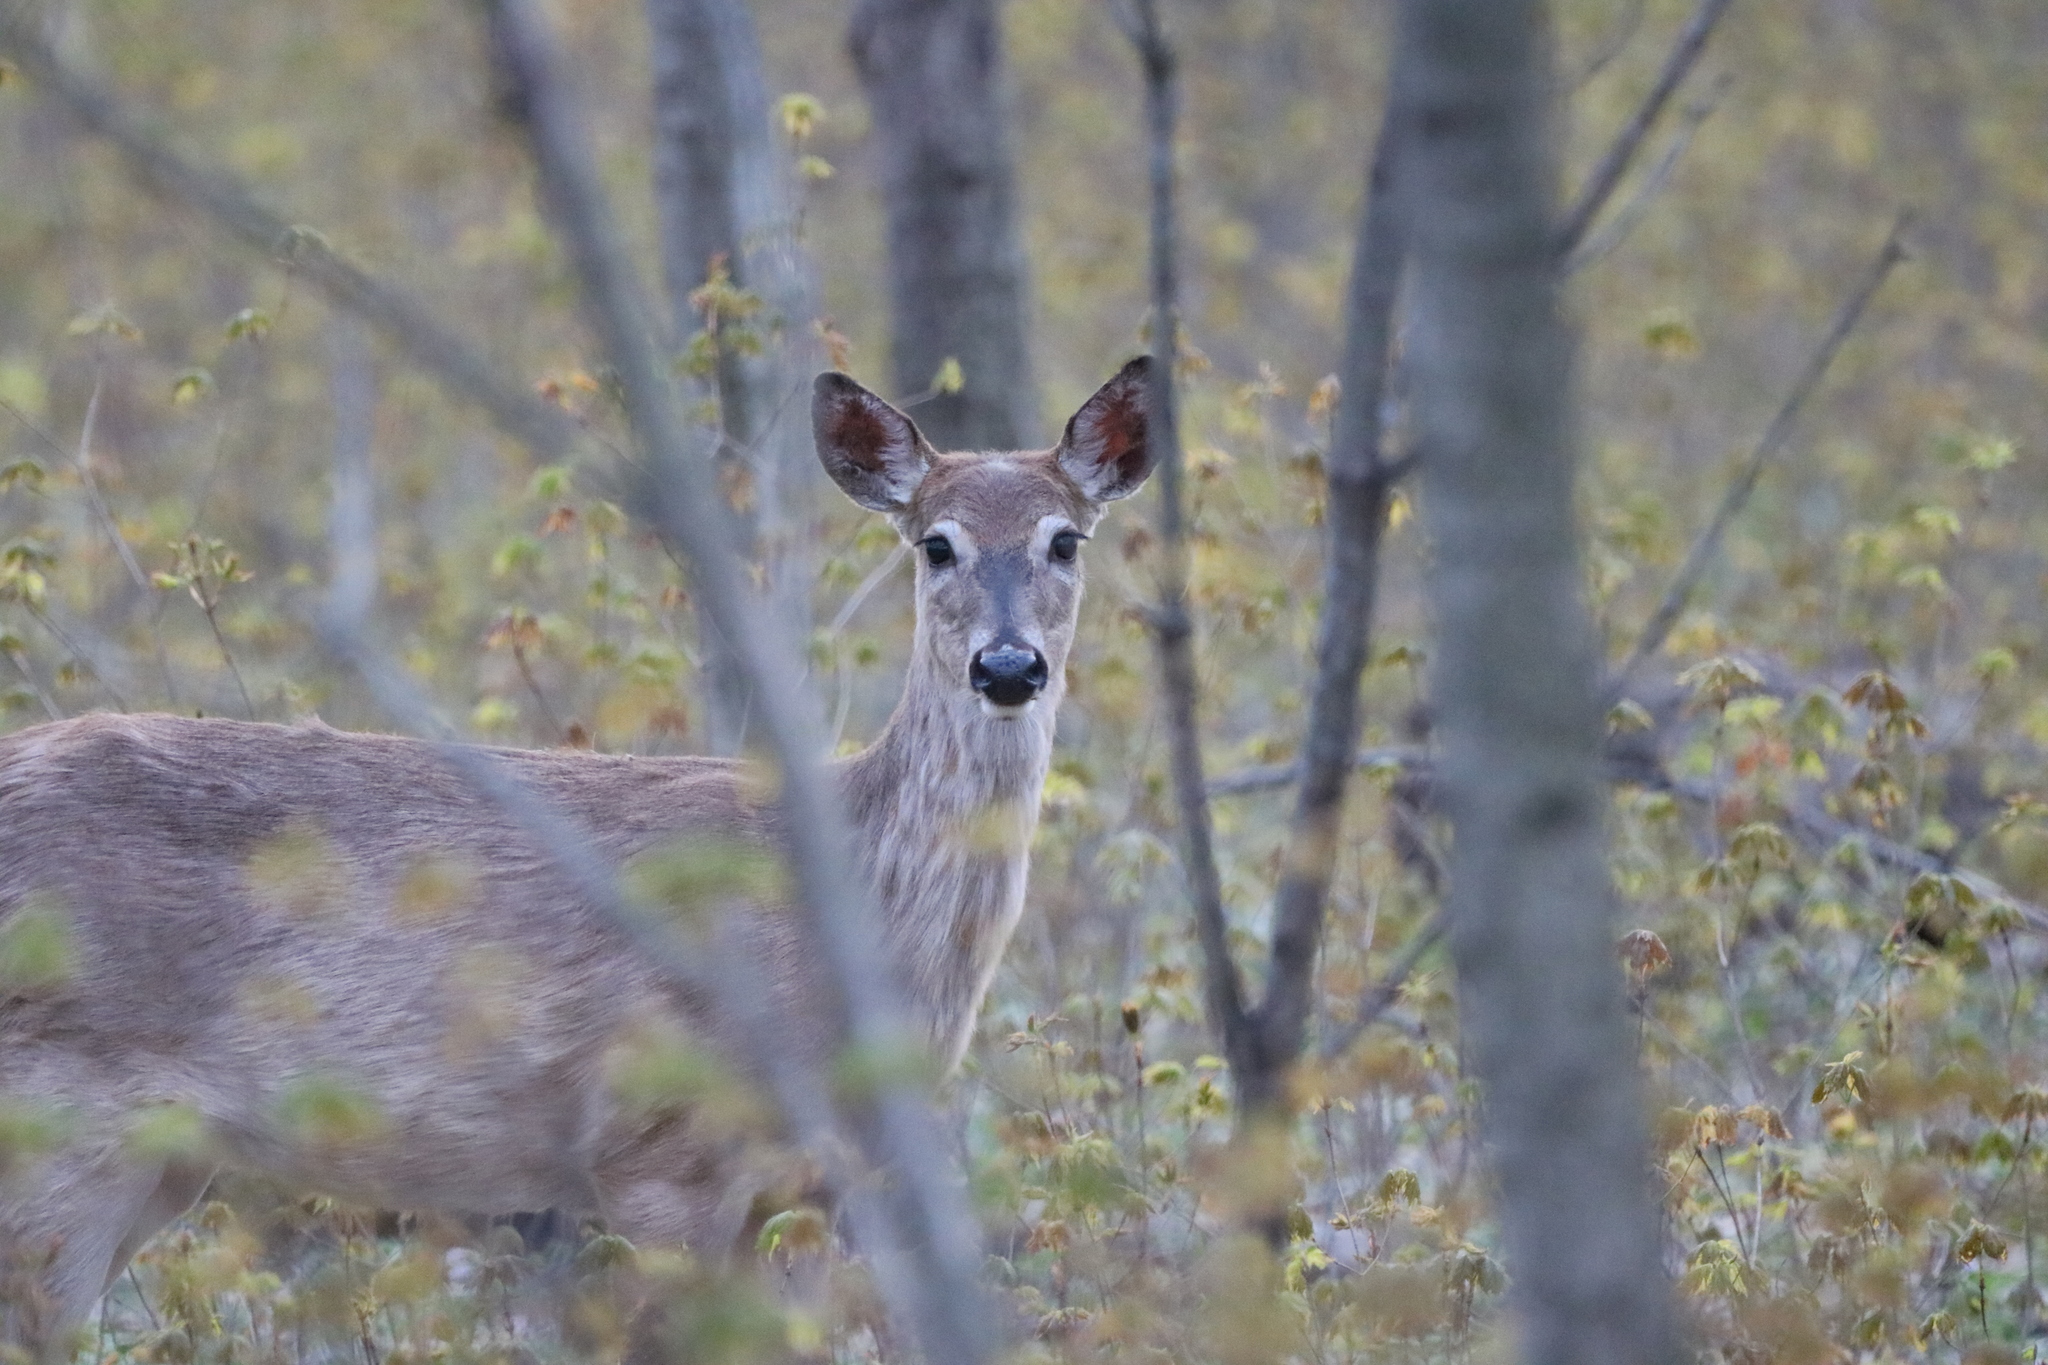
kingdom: Animalia
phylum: Chordata
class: Mammalia
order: Artiodactyla
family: Cervidae
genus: Odocoileus
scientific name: Odocoileus virginianus
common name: White-tailed deer
